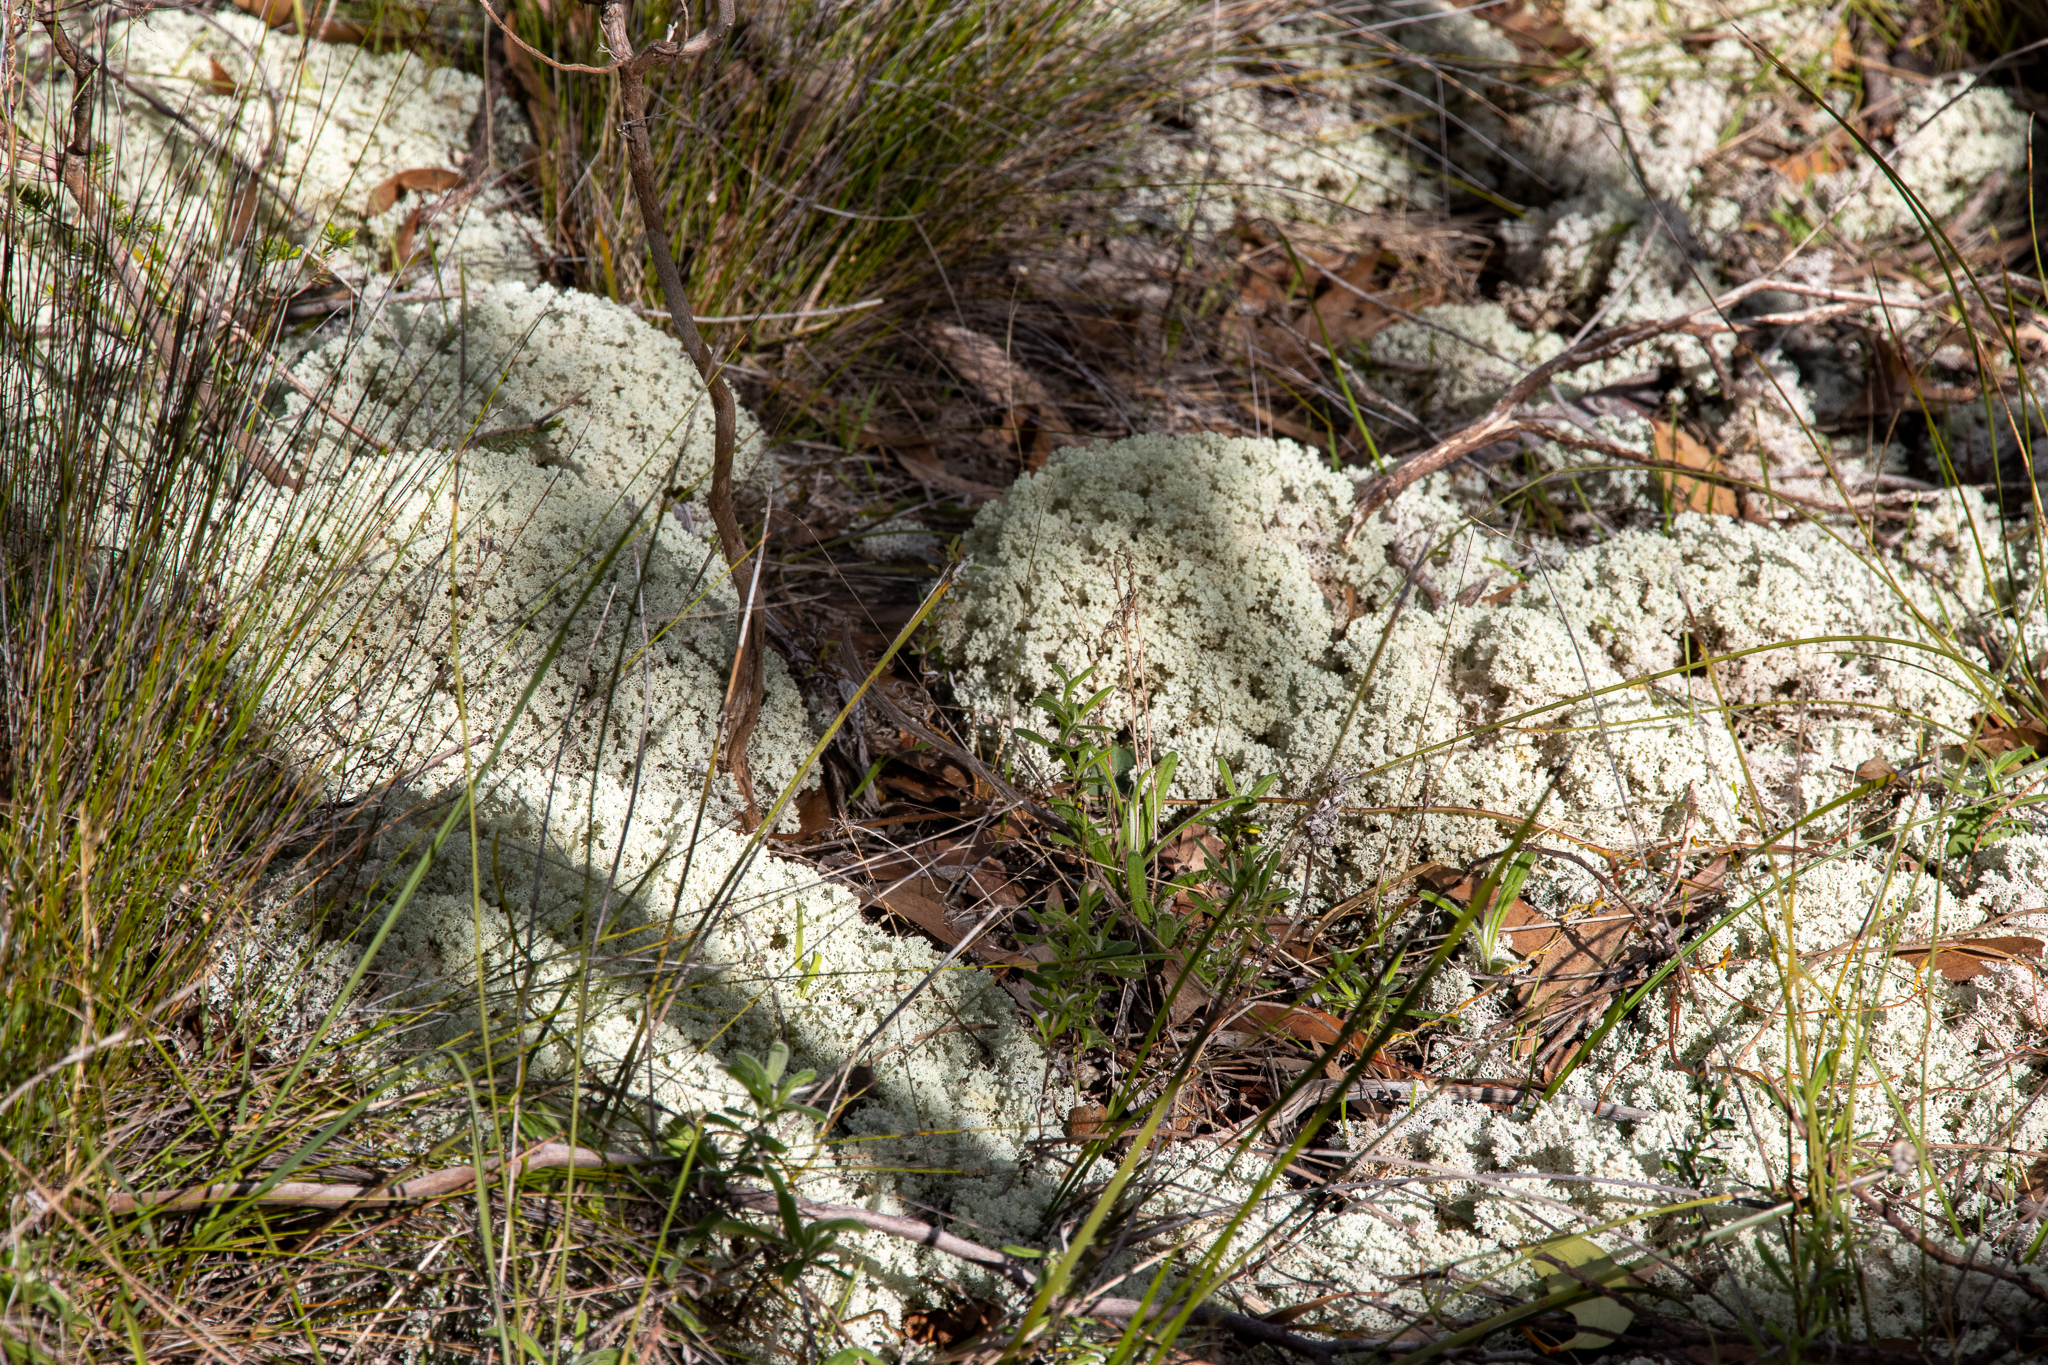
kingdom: Fungi
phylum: Ascomycota
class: Lecanoromycetes
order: Lecanorales
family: Cladoniaceae
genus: Pulchrocladia
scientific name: Pulchrocladia ferdinandii
